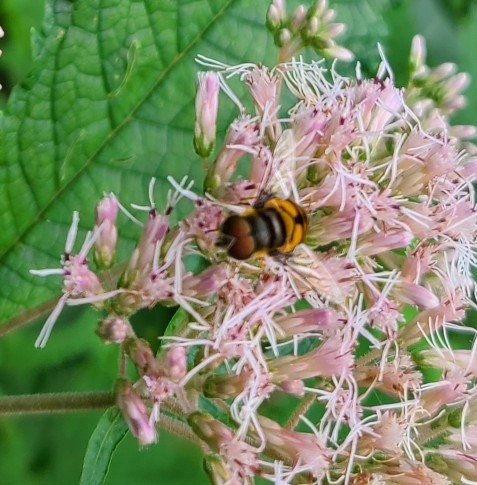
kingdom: Animalia
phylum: Arthropoda
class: Insecta
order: Diptera
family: Syrphidae
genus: Eristalis
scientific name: Eristalis transversa
